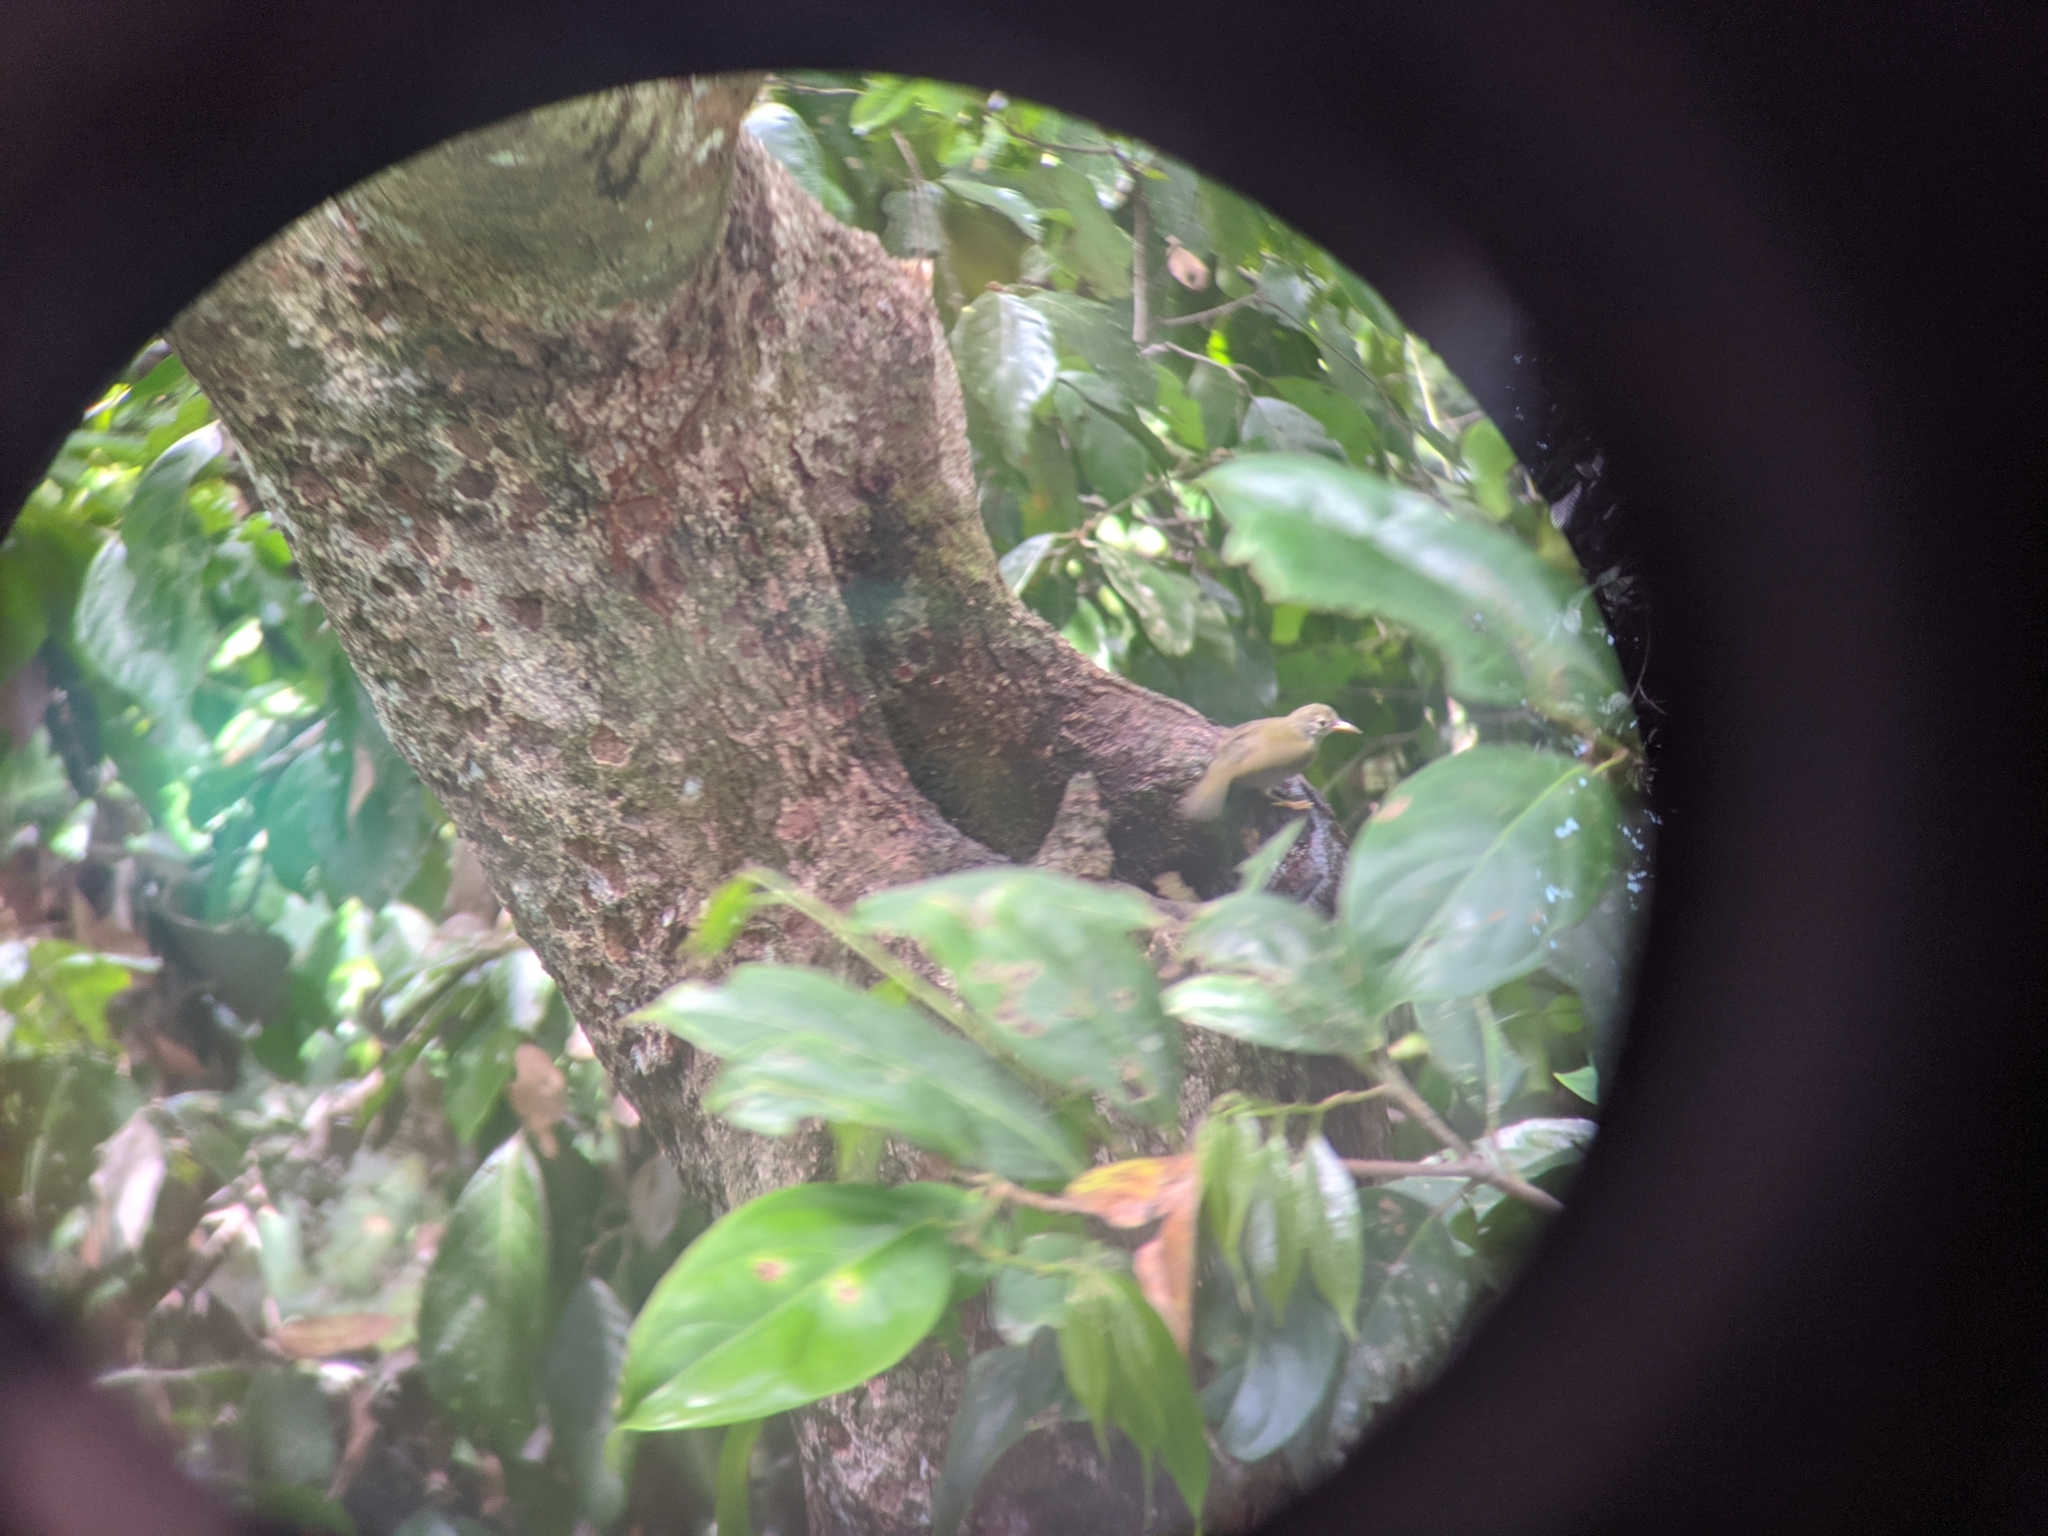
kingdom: Animalia
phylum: Chordata
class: Aves
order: Passeriformes
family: Nectariniidae
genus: Anthreptes
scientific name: Anthreptes malacensis
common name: Brown-throated sunbird
